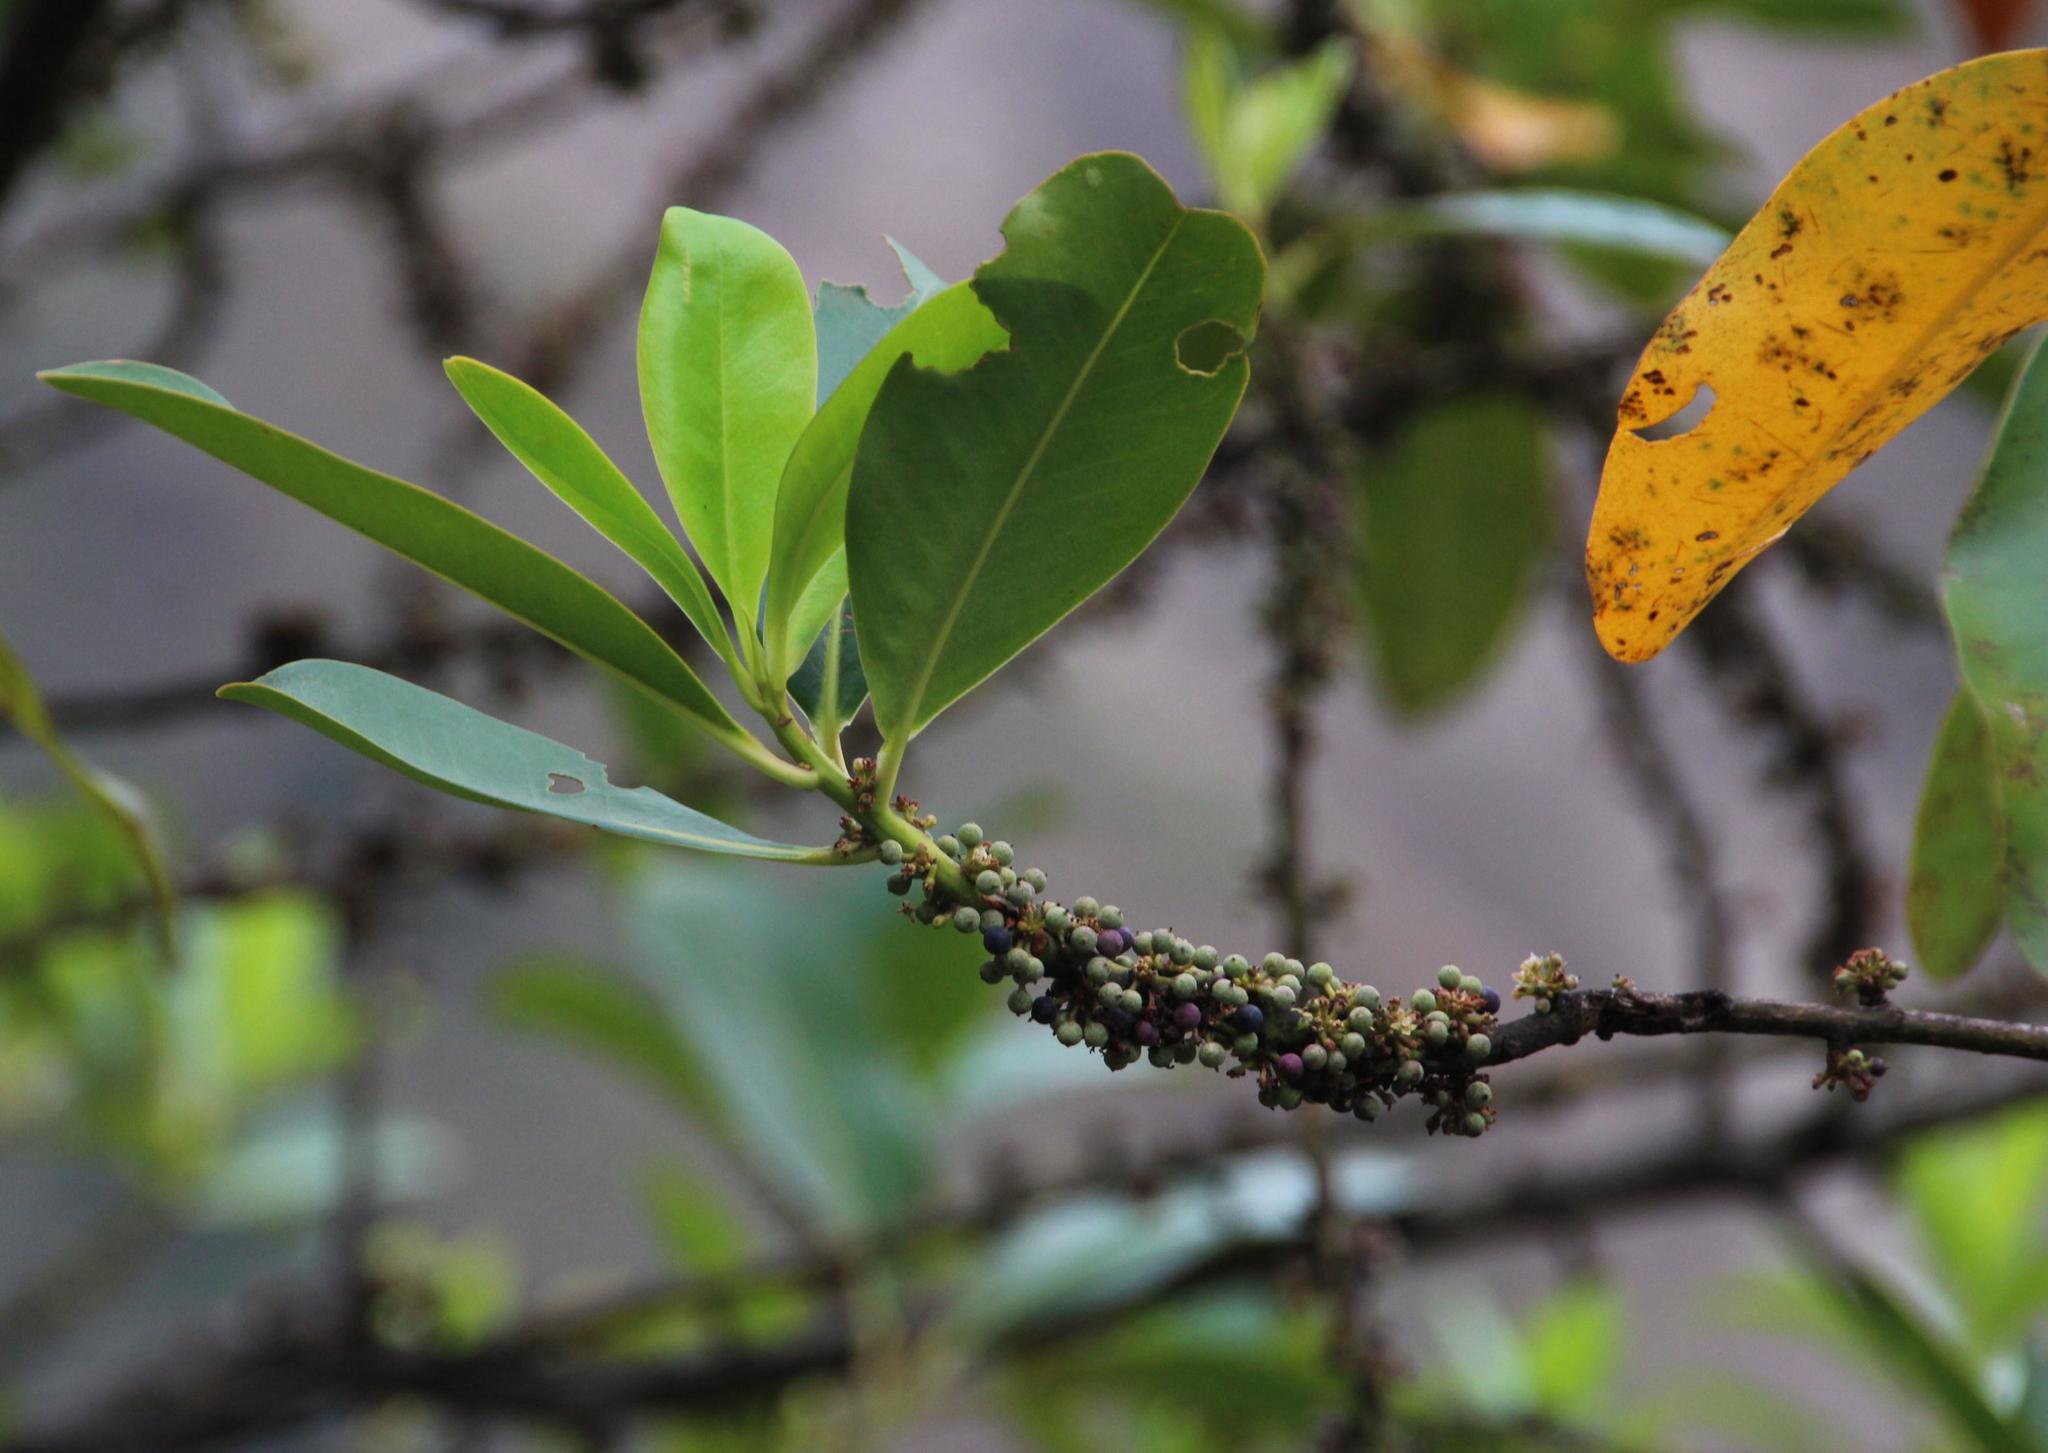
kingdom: Plantae
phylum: Tracheophyta
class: Magnoliopsida
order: Ericales
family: Primulaceae
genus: Myrsine
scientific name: Myrsine latifolia
